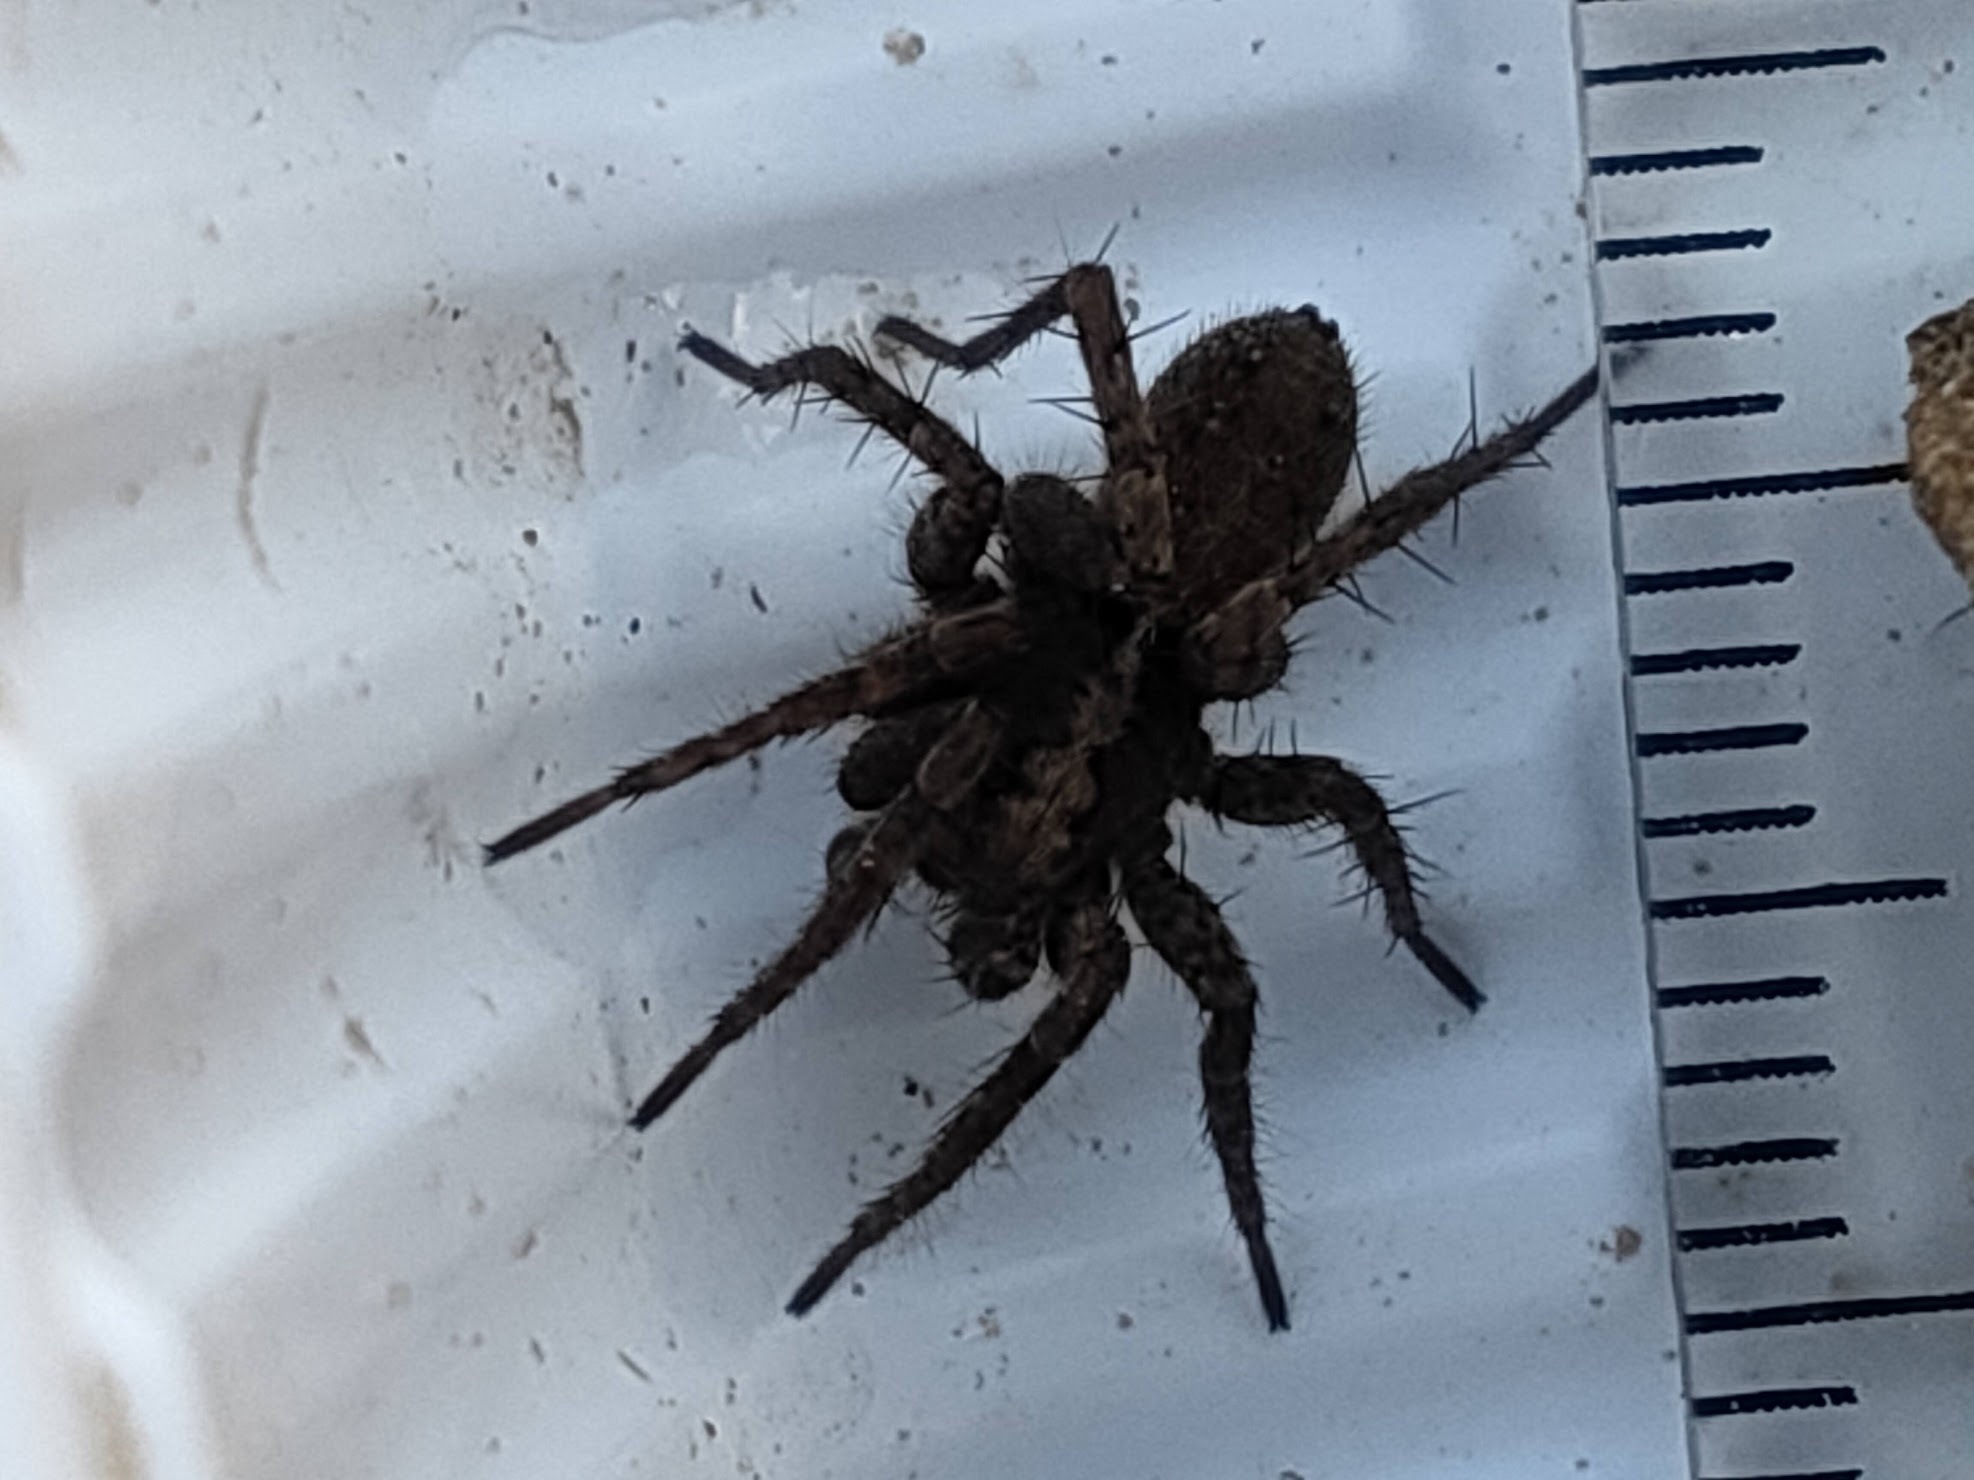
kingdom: Animalia
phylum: Arthropoda
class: Arachnida
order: Araneae
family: Lycosidae
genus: Pardosa
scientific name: Pardosa astrigera
